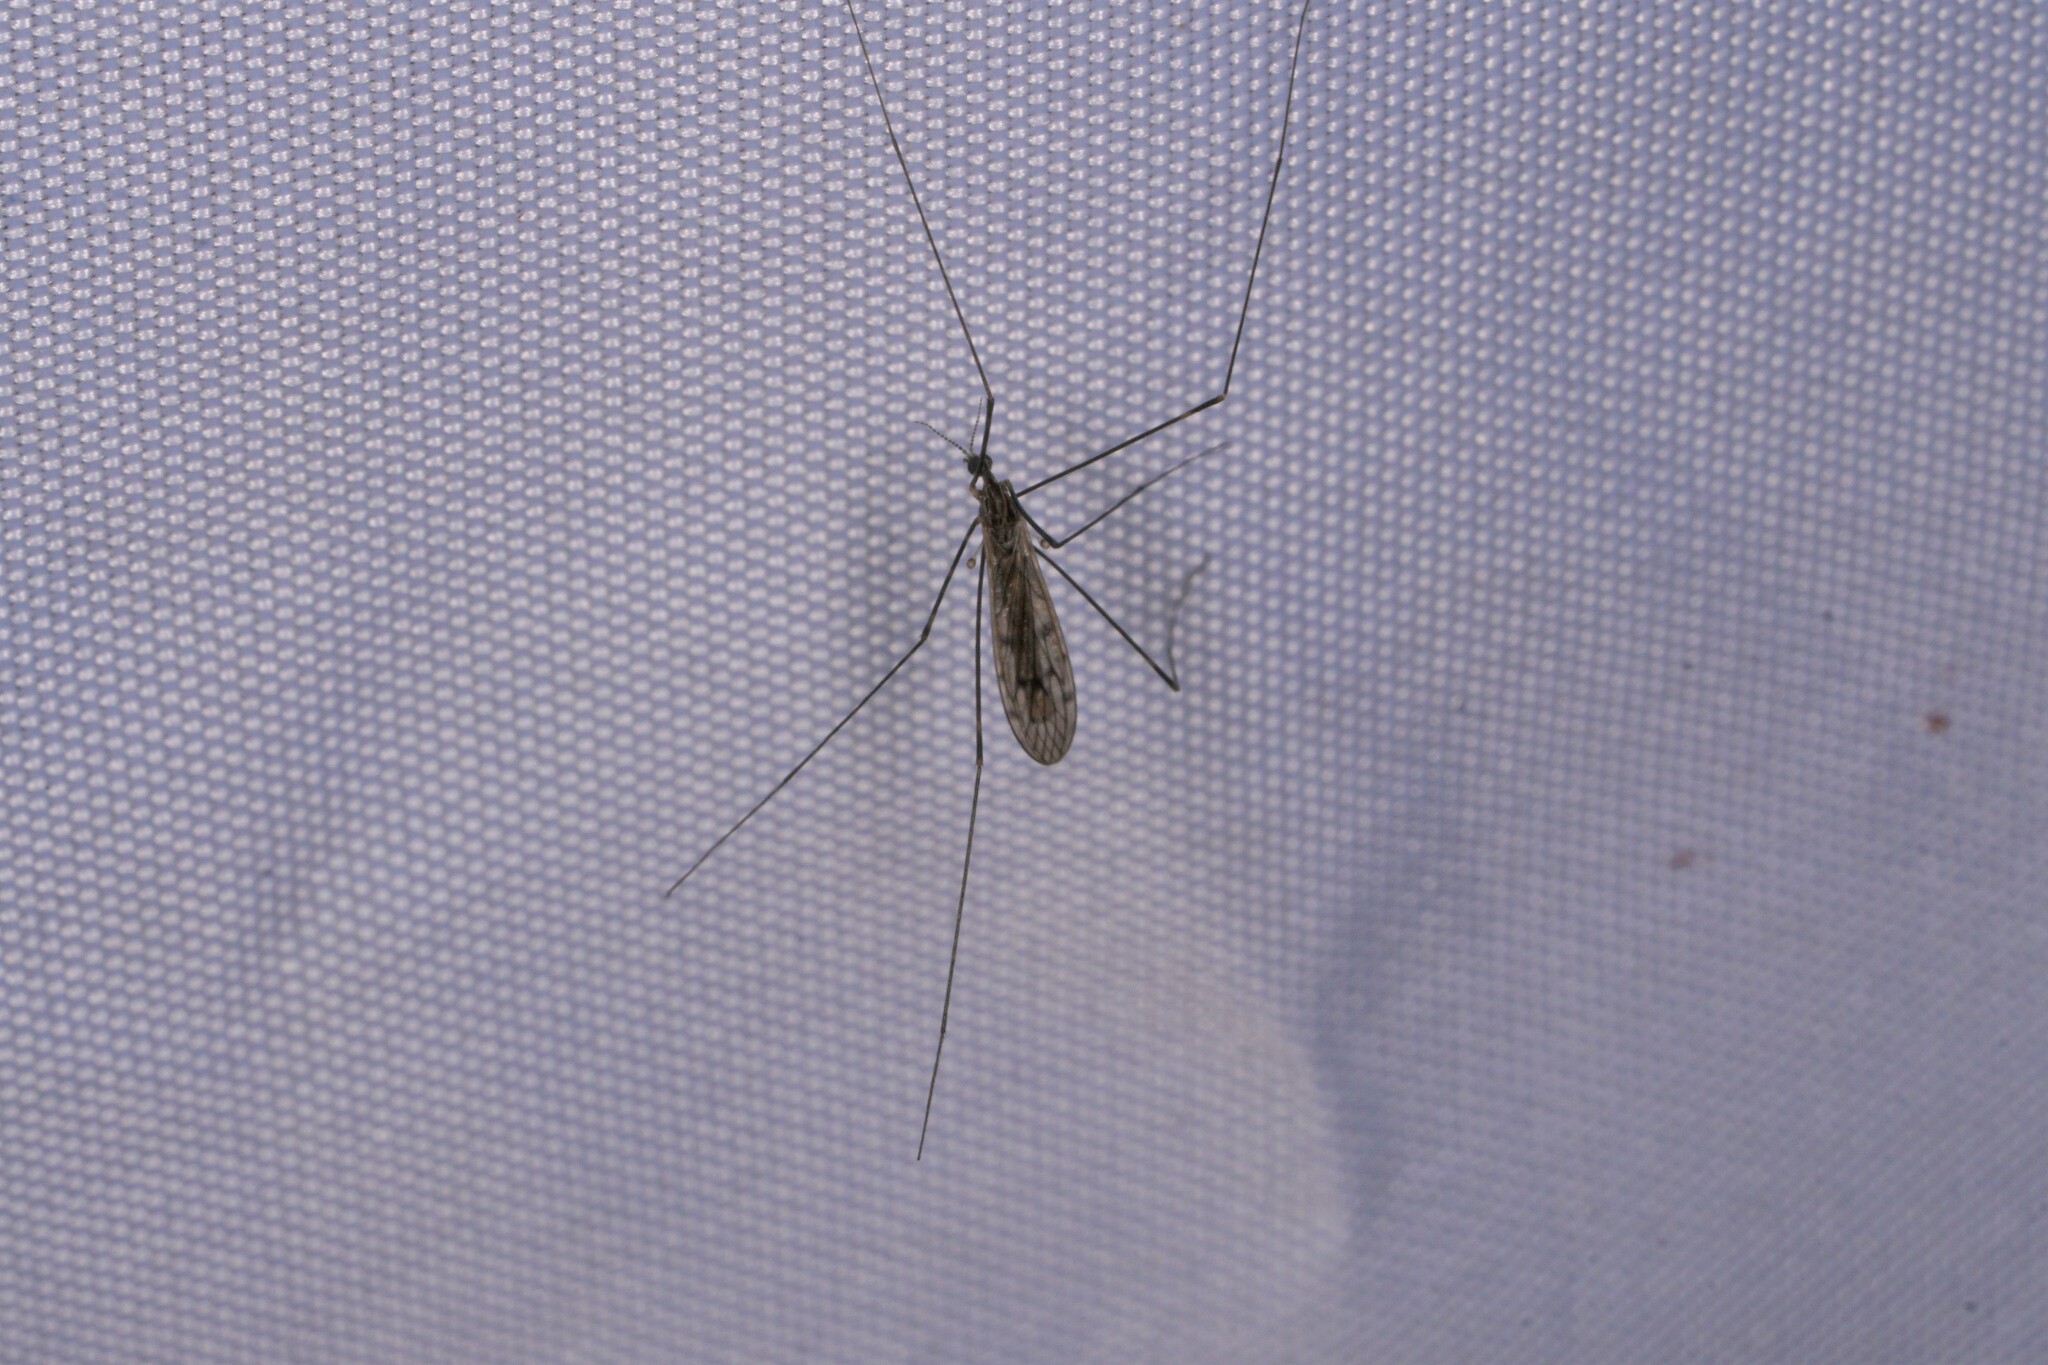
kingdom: Animalia
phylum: Arthropoda
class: Insecta
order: Diptera
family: Limoniidae
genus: Metalimnobia
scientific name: Metalimnobia novaeangliae
